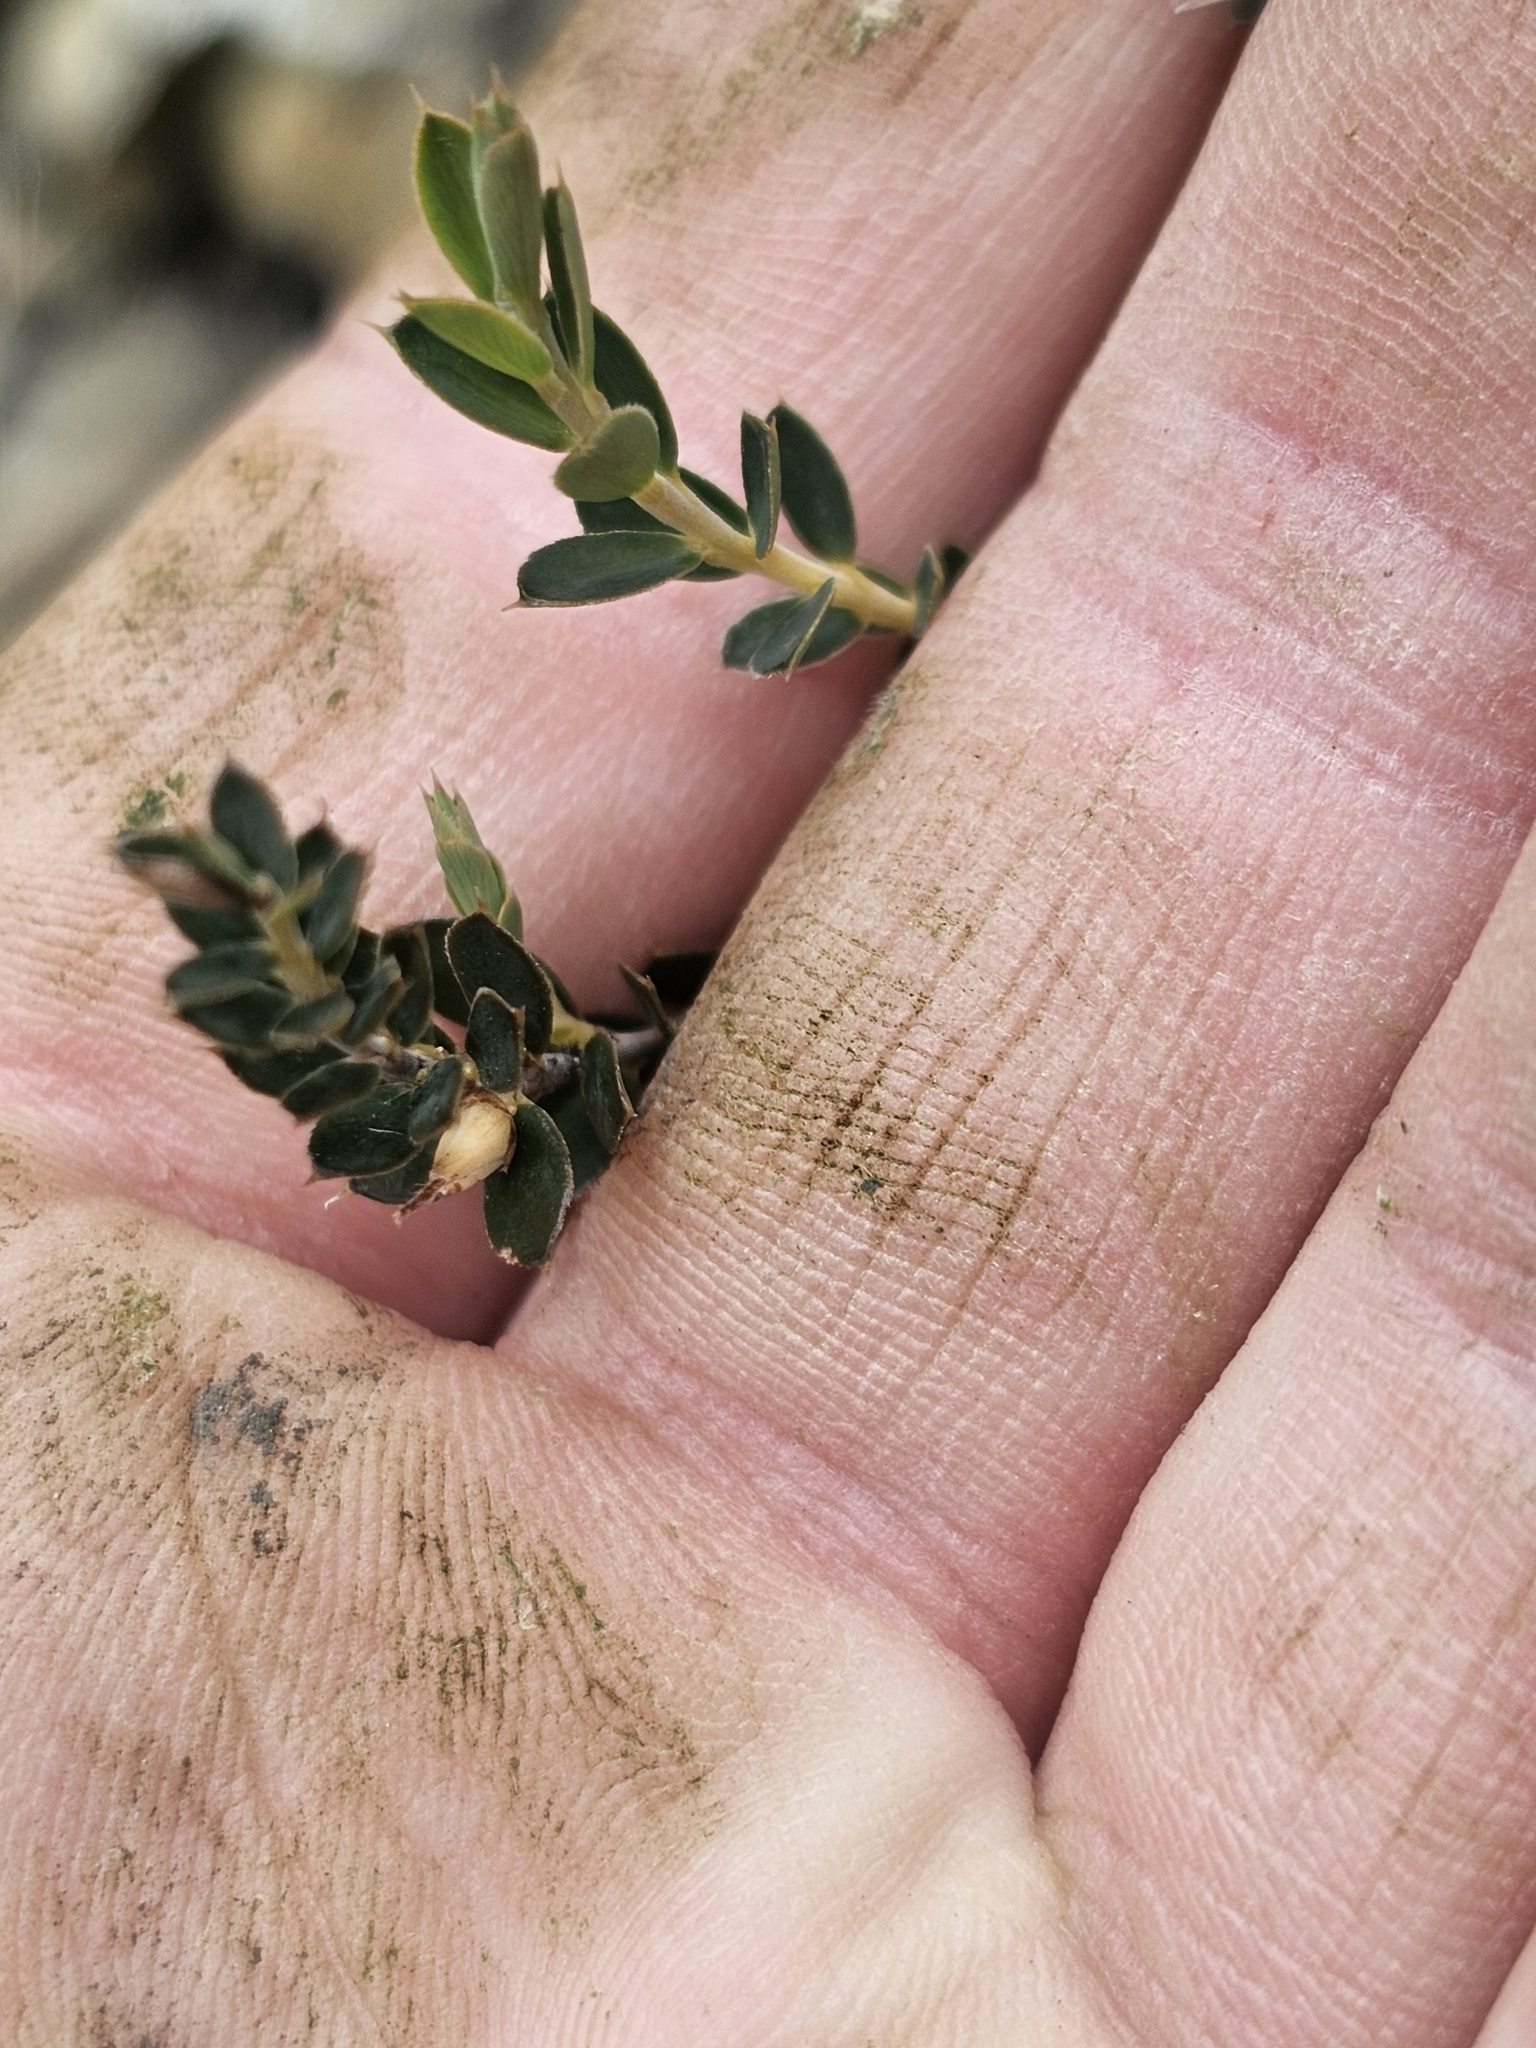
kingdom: Plantae
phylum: Tracheophyta
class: Magnoliopsida
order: Ericales
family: Ericaceae
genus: Styphelia
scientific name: Styphelia nesophila
